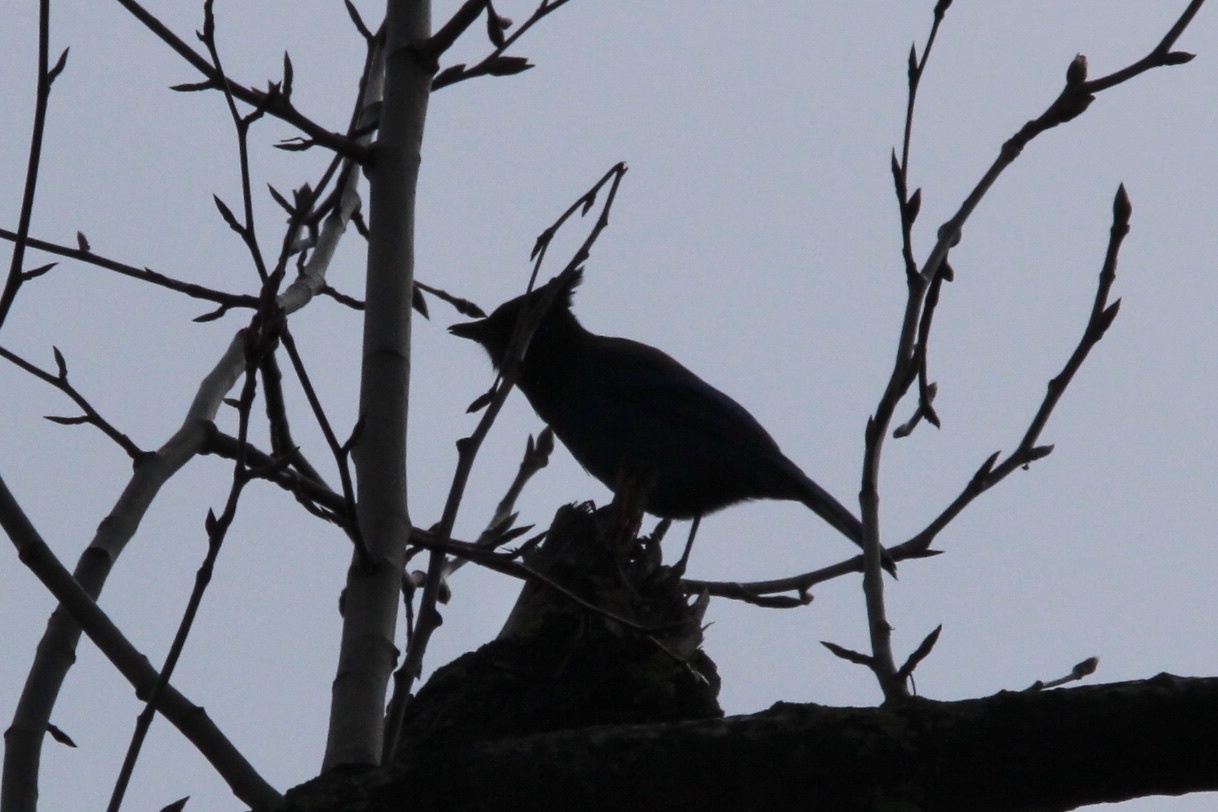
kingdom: Animalia
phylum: Chordata
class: Aves
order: Passeriformes
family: Corvidae
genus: Cyanocitta
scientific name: Cyanocitta stelleri
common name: Steller's jay
